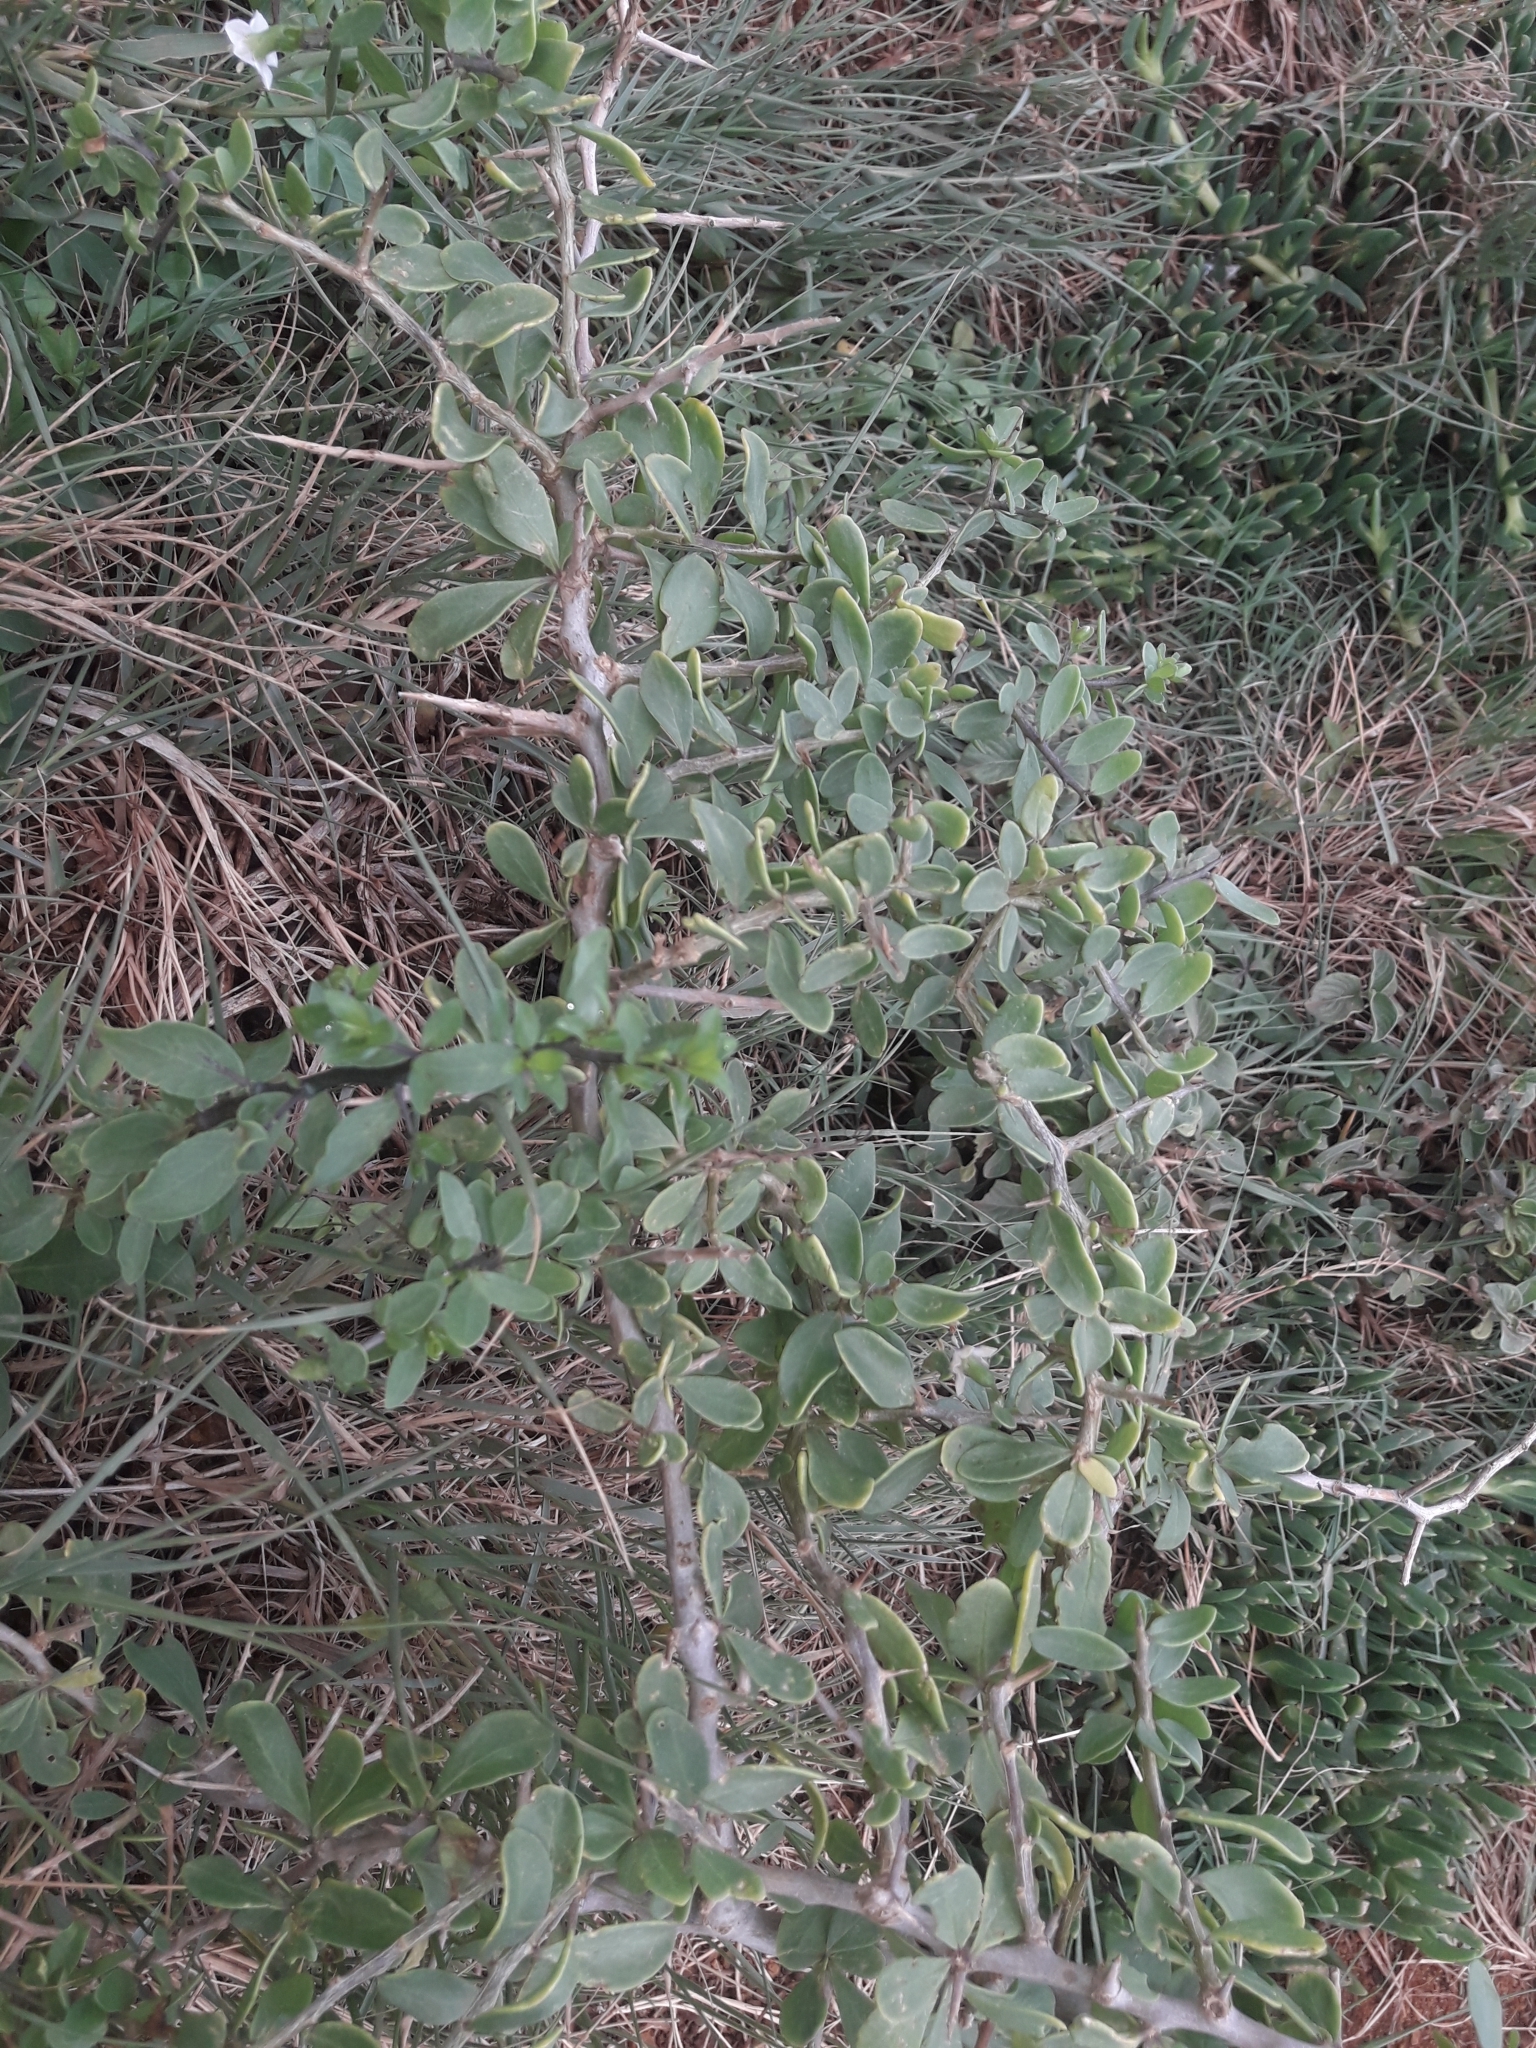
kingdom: Plantae
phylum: Tracheophyta
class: Magnoliopsida
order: Solanales
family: Solanaceae
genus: Lycium
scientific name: Lycium ferocissimum
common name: African boxthorn
